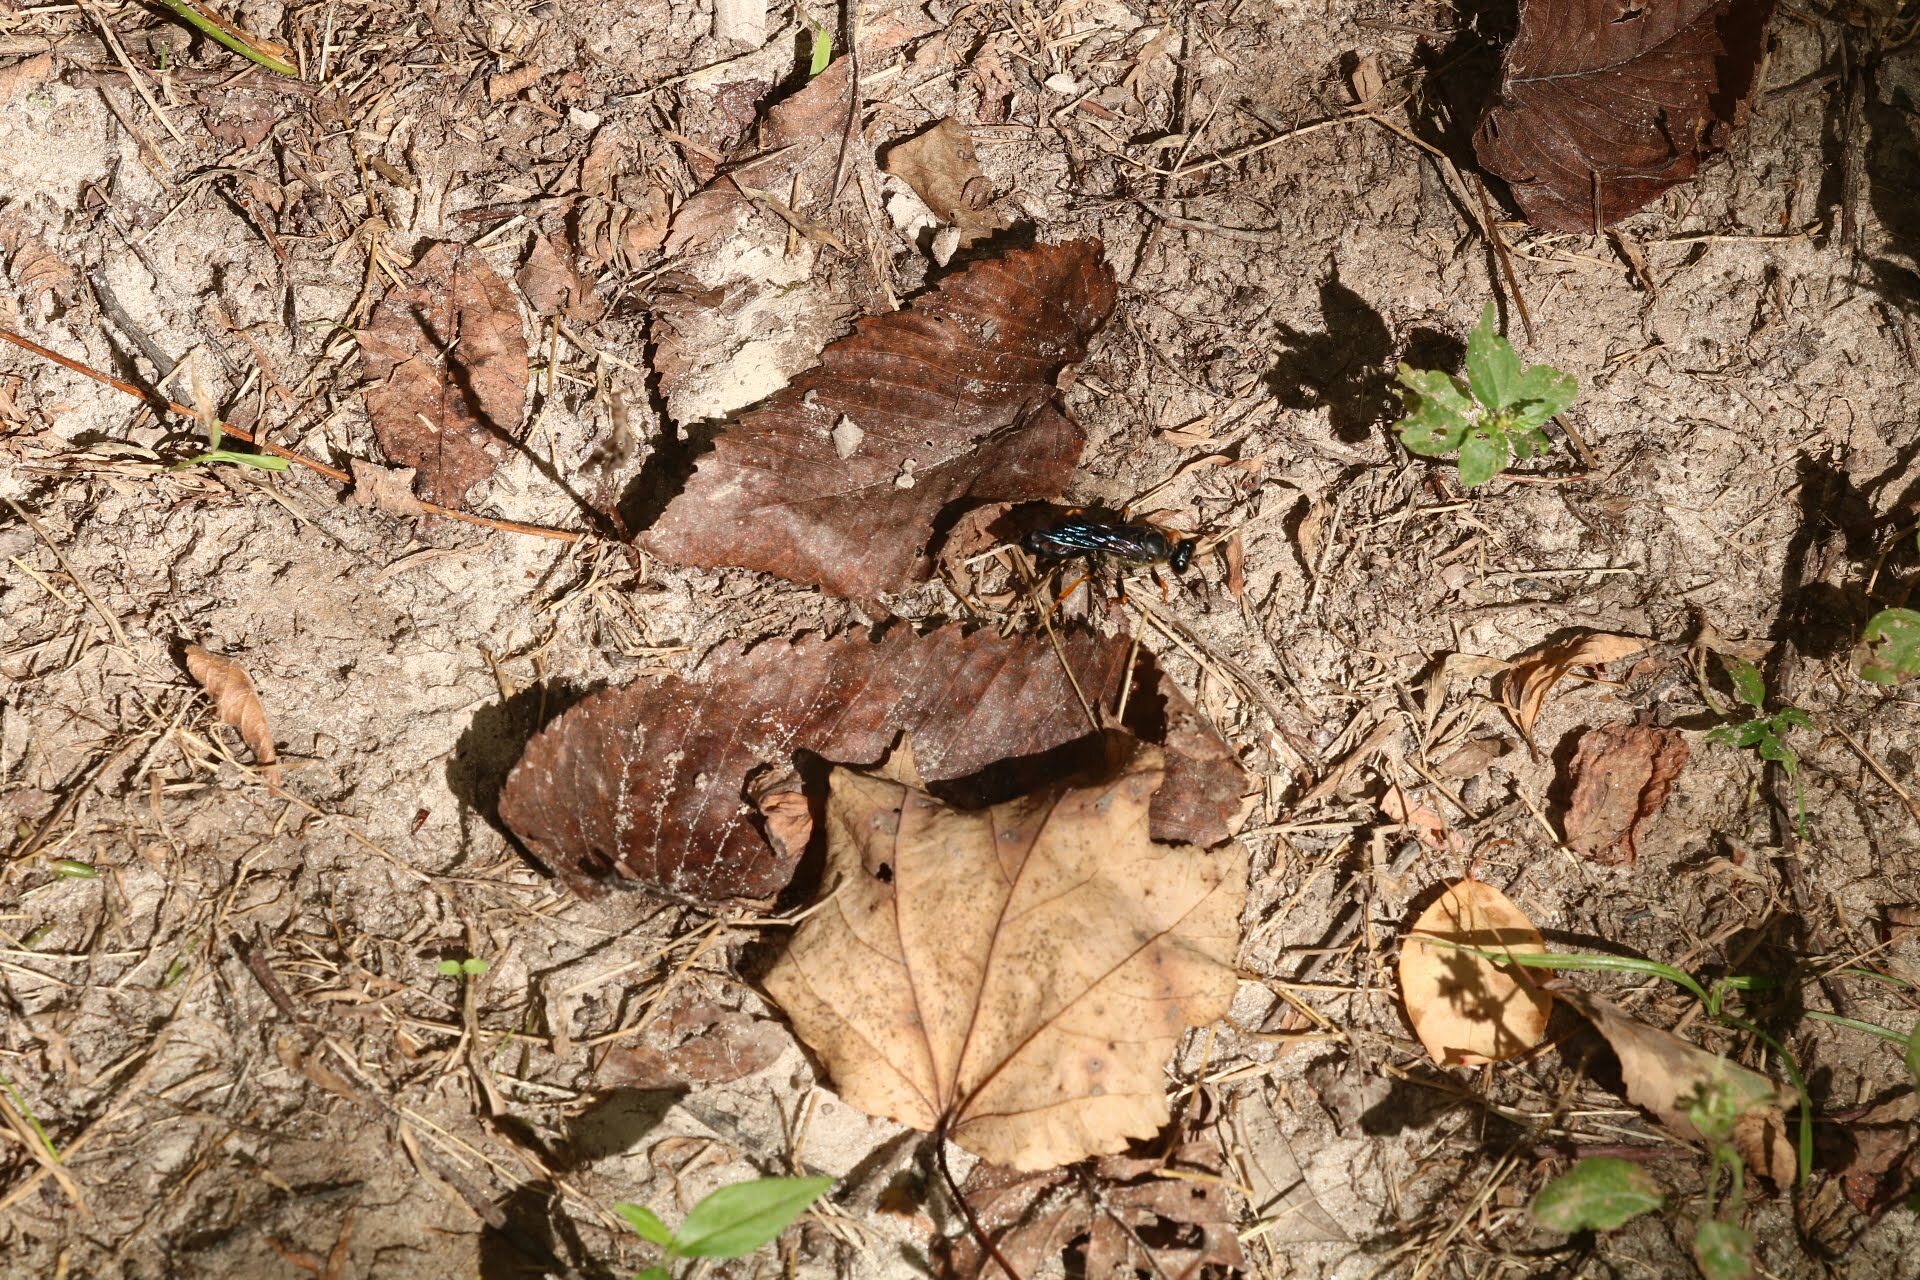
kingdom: Animalia
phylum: Arthropoda
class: Insecta
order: Hymenoptera
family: Sphecidae
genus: Sphex
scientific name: Sphex nudus
